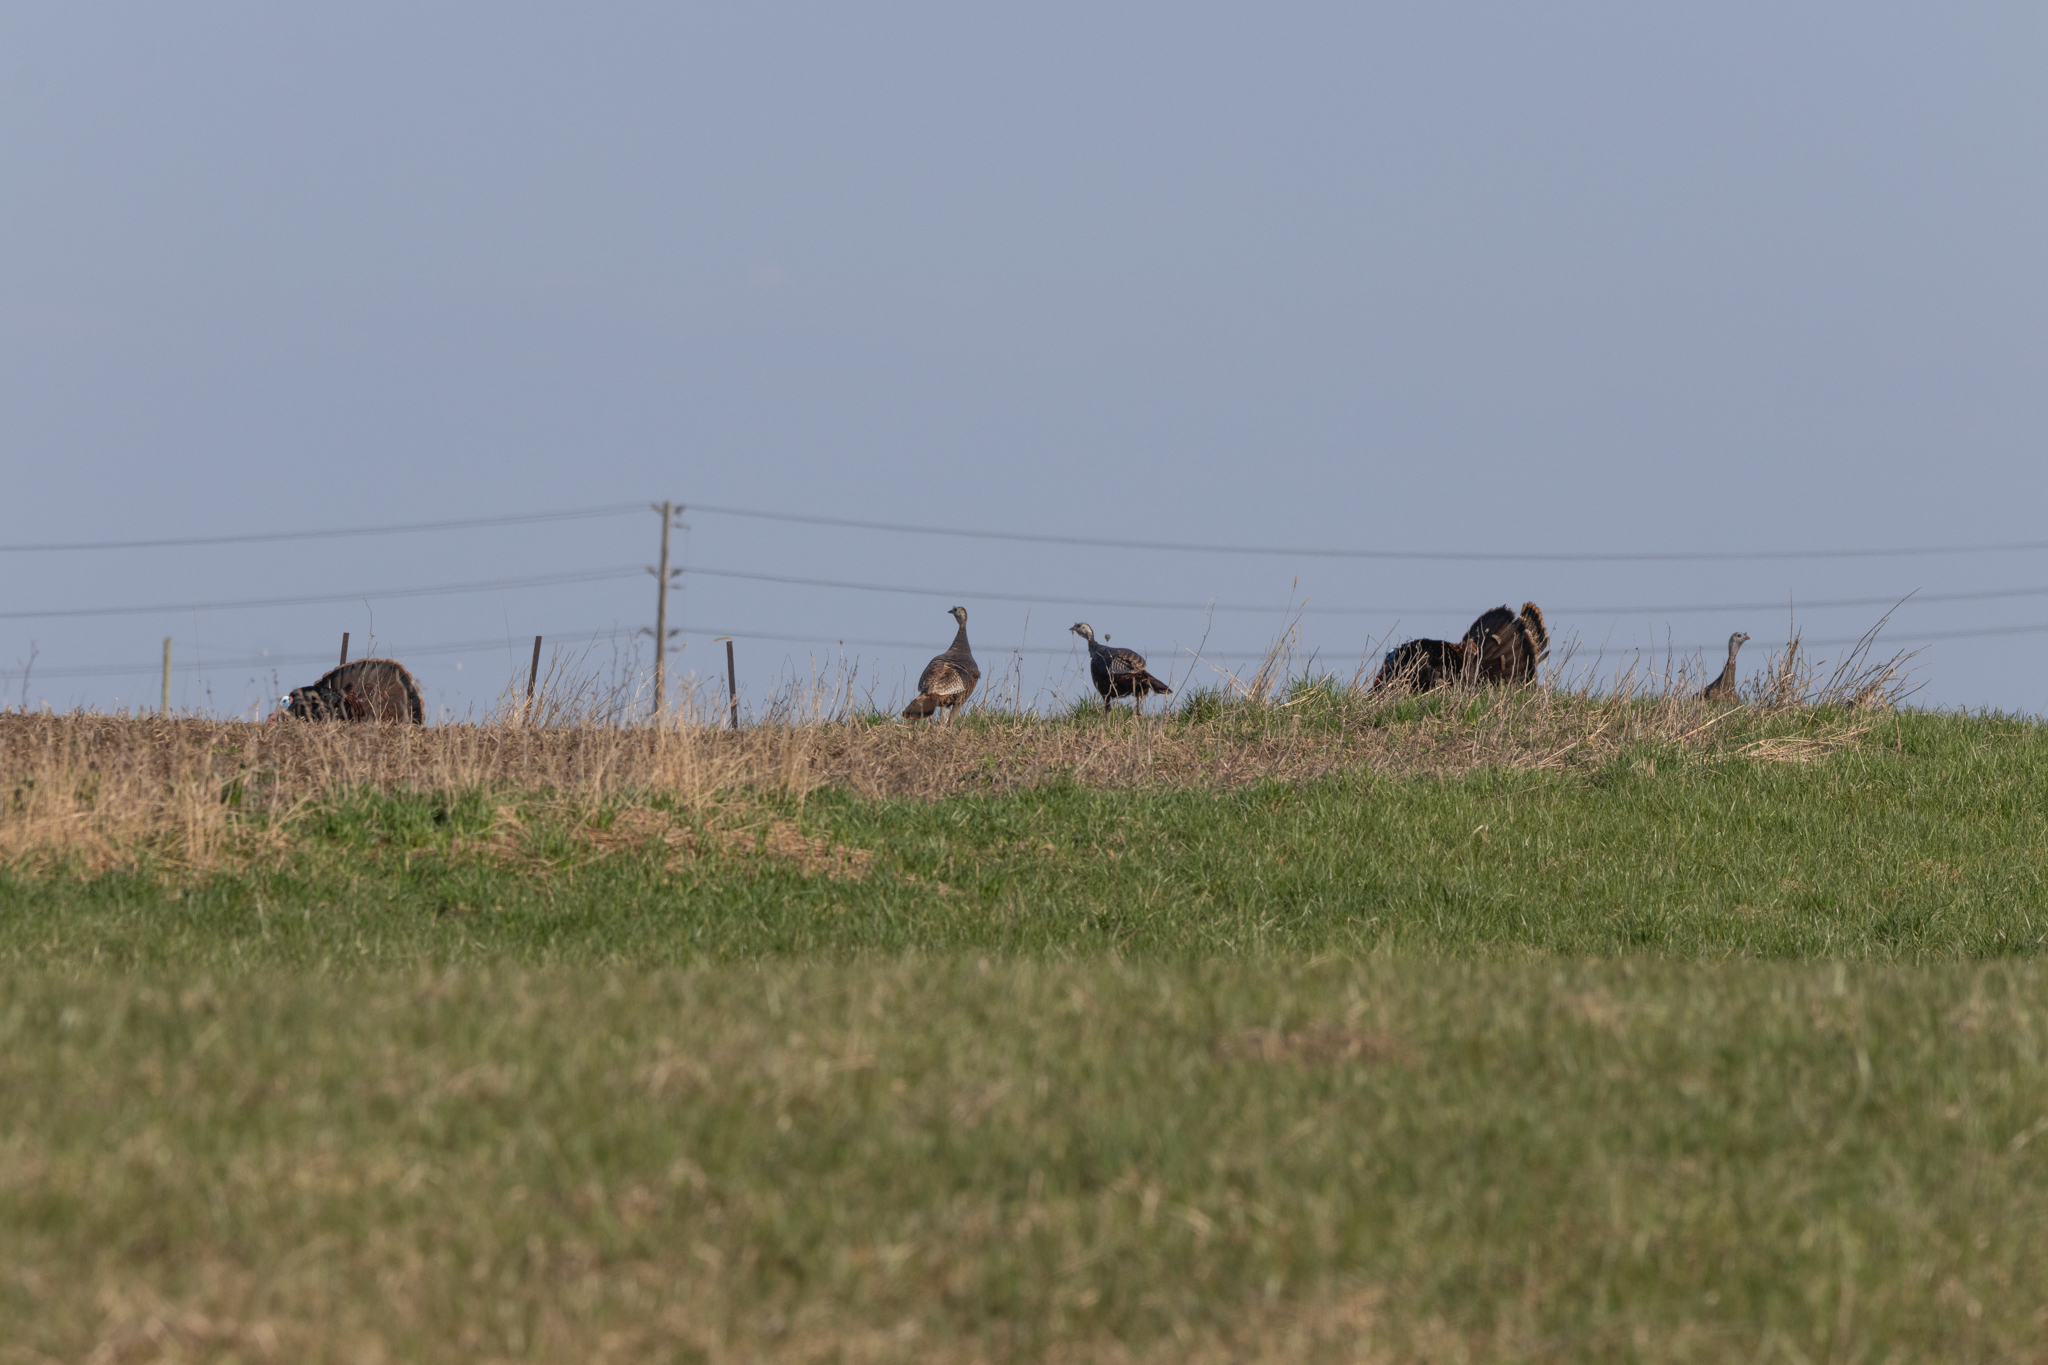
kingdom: Animalia
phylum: Chordata
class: Aves
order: Galliformes
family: Phasianidae
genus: Meleagris
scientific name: Meleagris gallopavo
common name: Wild turkey
